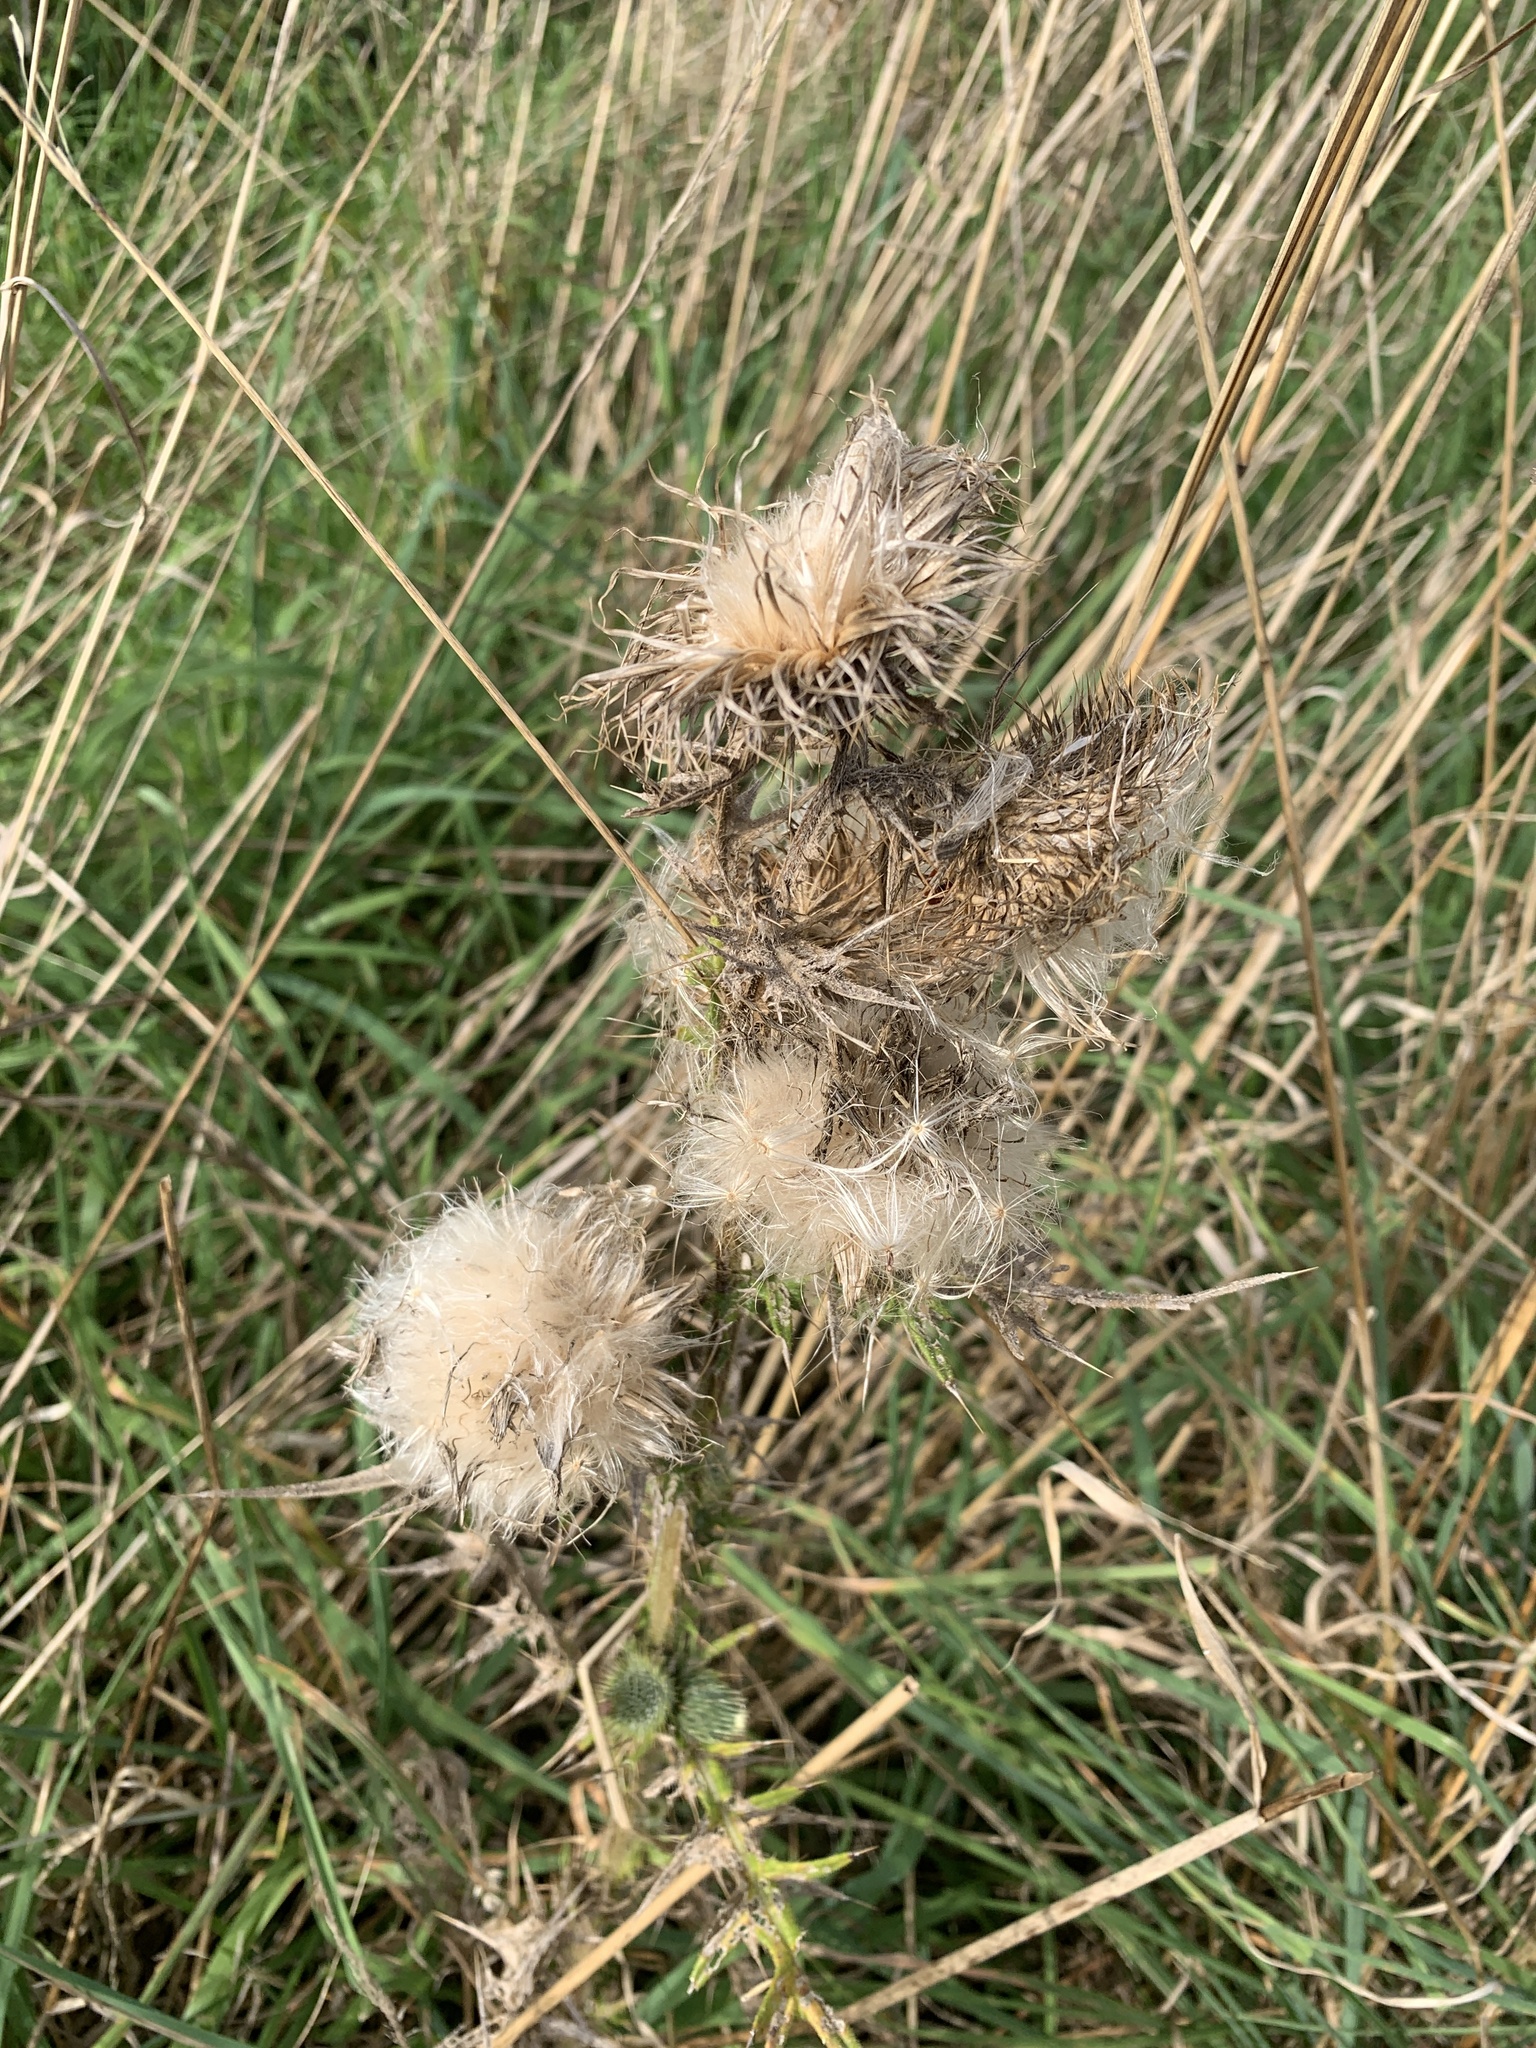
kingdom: Plantae
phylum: Tracheophyta
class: Magnoliopsida
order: Asterales
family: Asteraceae
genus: Cirsium
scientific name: Cirsium arvense
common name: Creeping thistle
